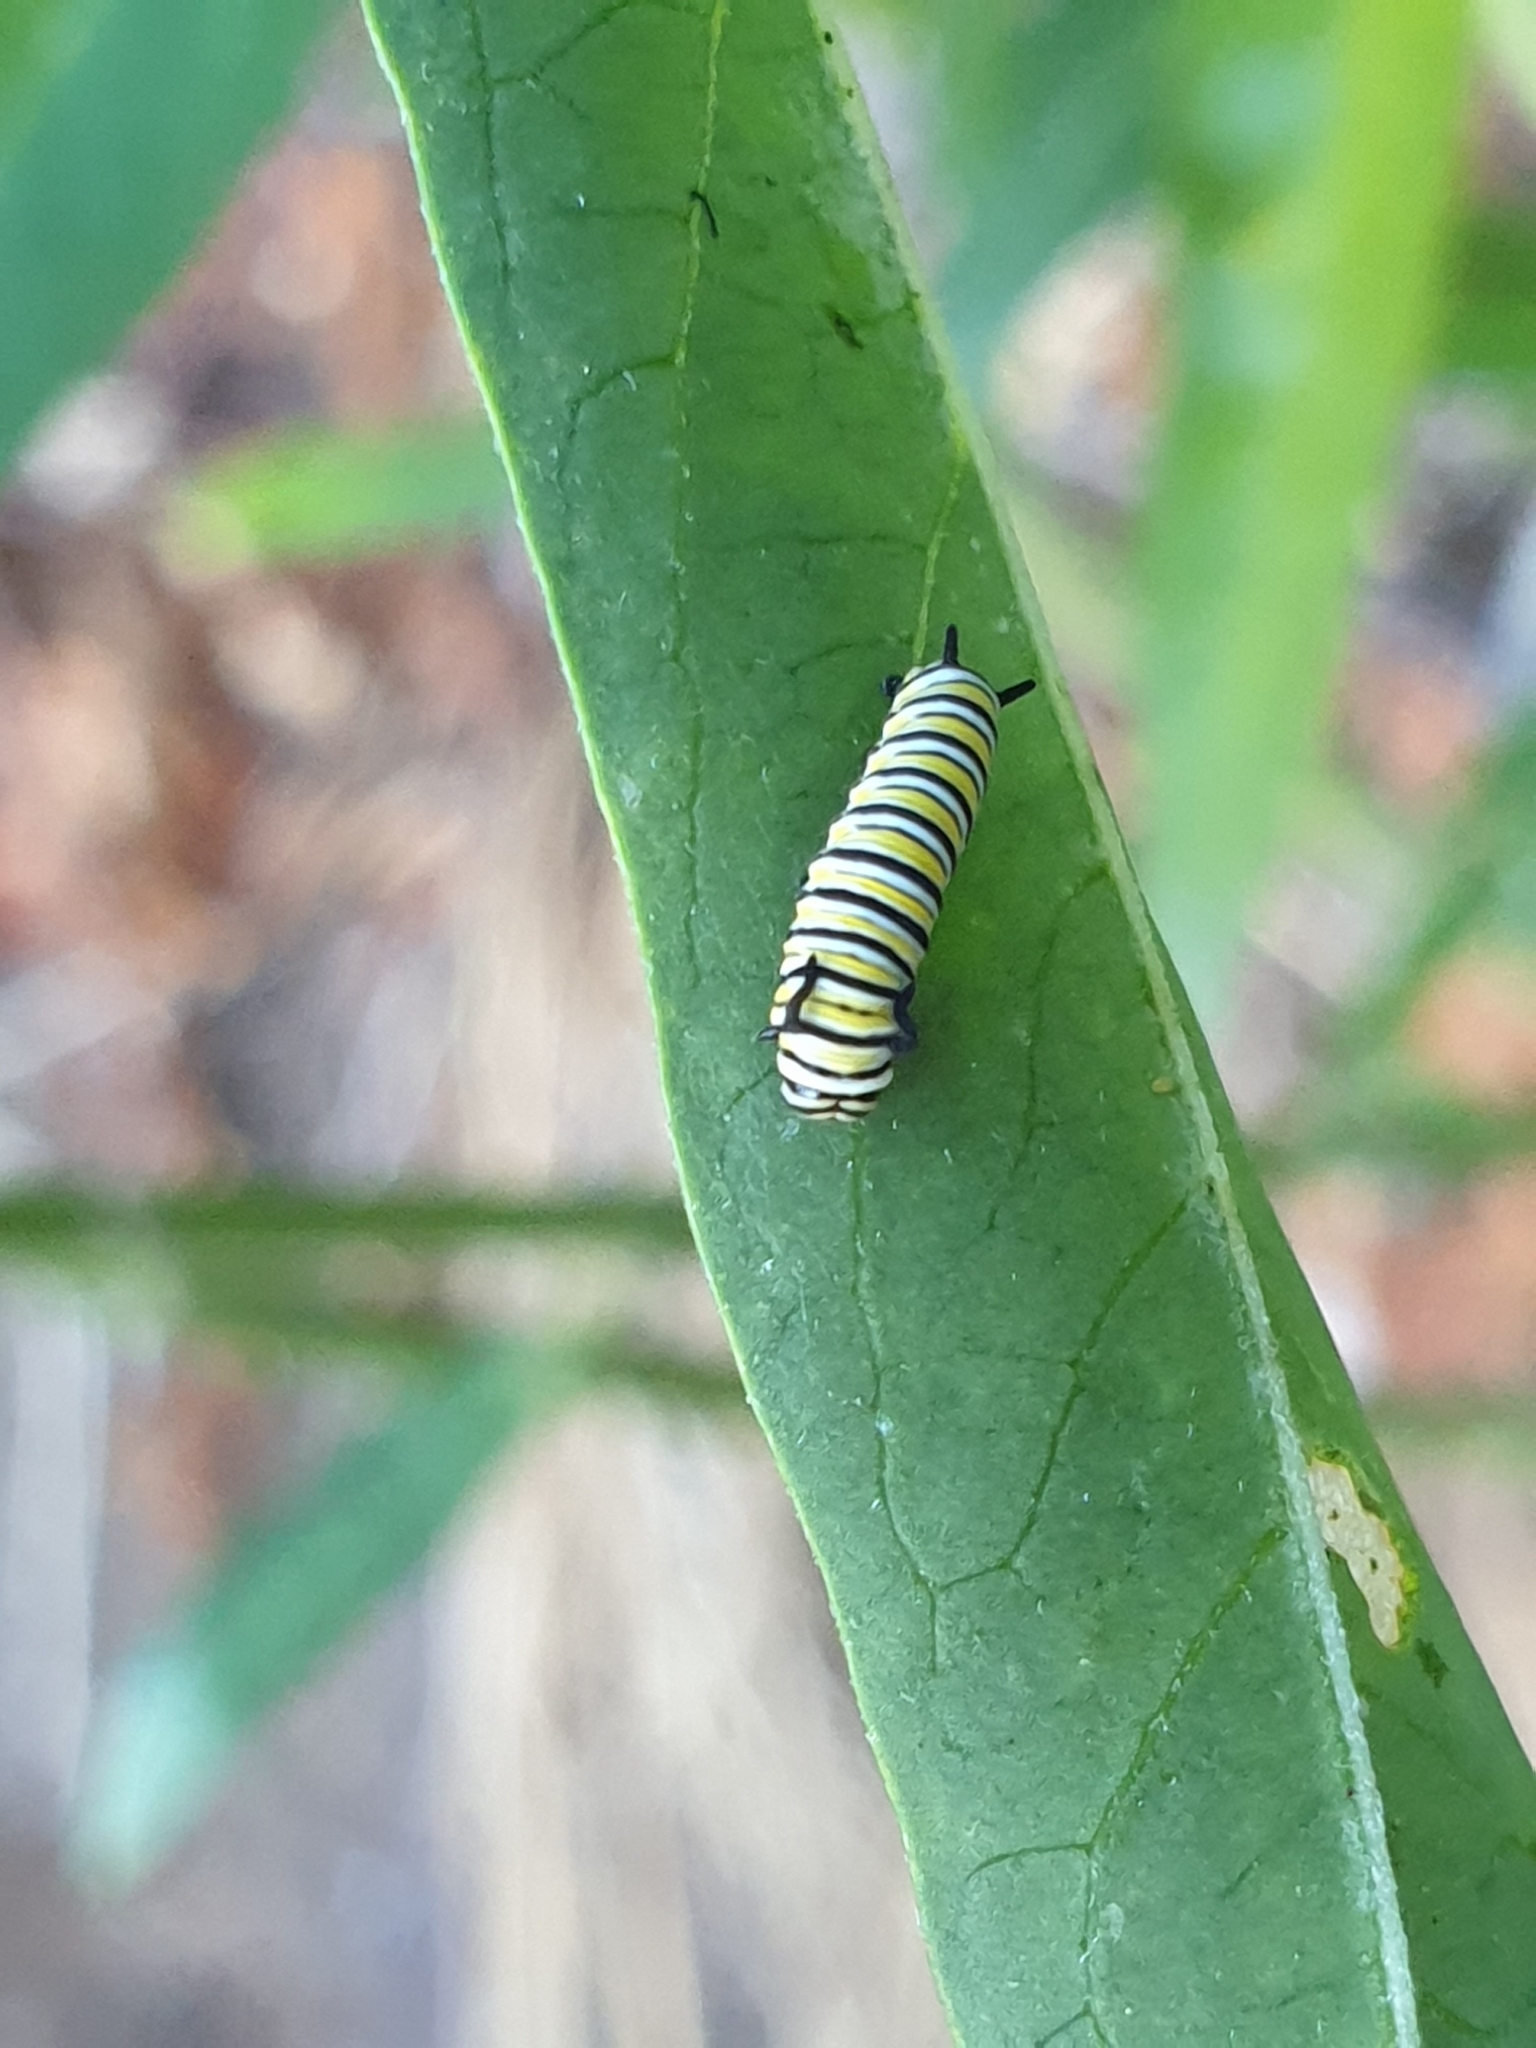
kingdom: Animalia
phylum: Arthropoda
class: Insecta
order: Lepidoptera
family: Nymphalidae
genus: Danaus
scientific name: Danaus plexippus
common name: Monarch
